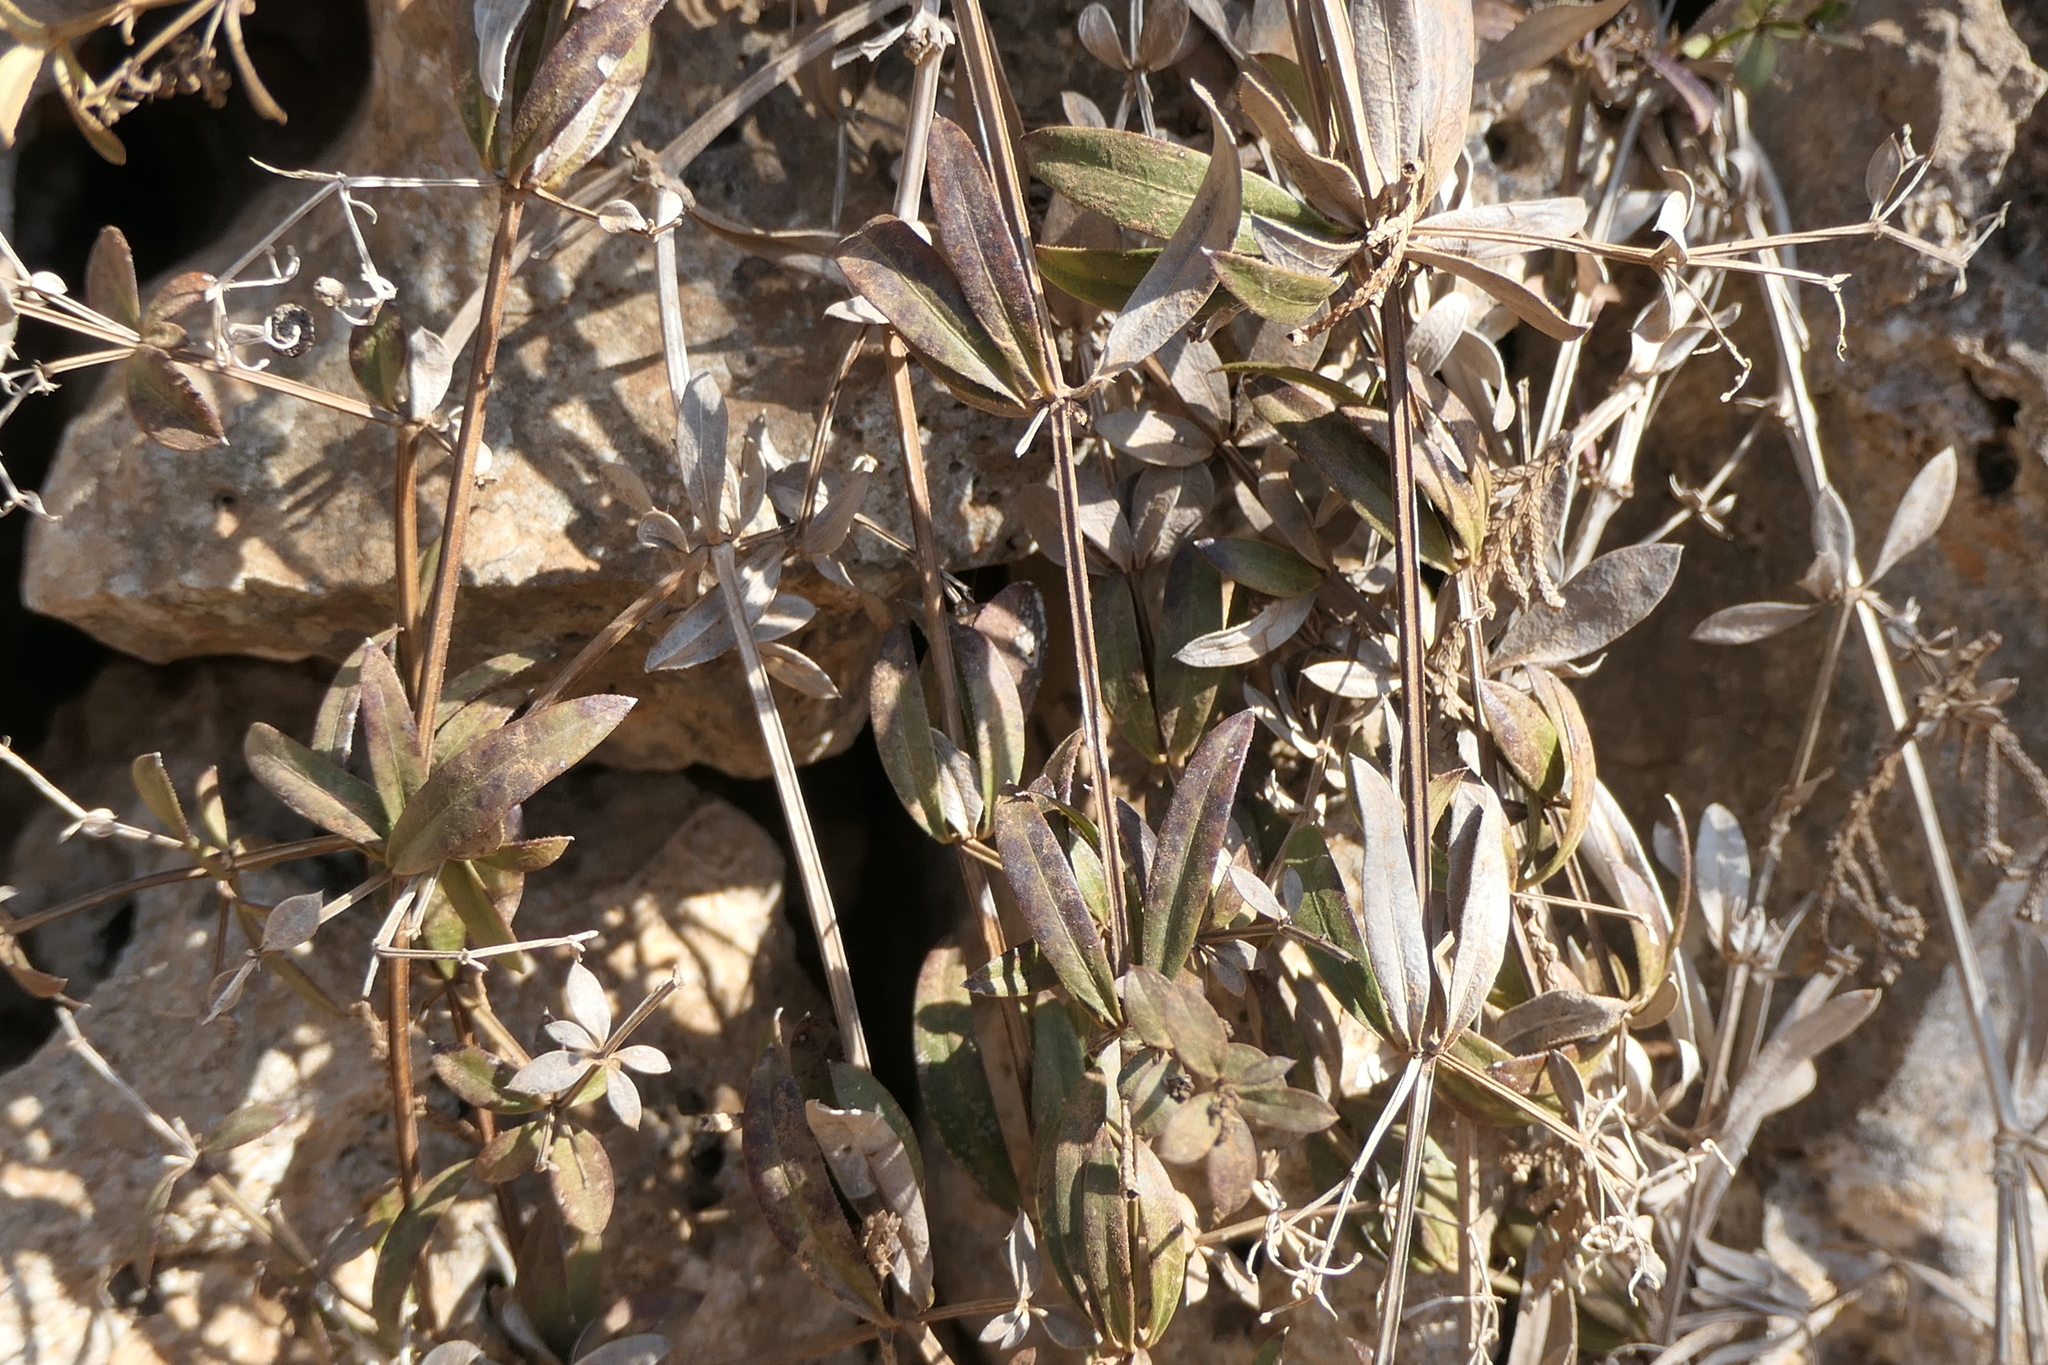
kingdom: Plantae
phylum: Tracheophyta
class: Magnoliopsida
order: Gentianales
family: Rubiaceae
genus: Rubia
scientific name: Rubia peregrina
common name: Wild madder
